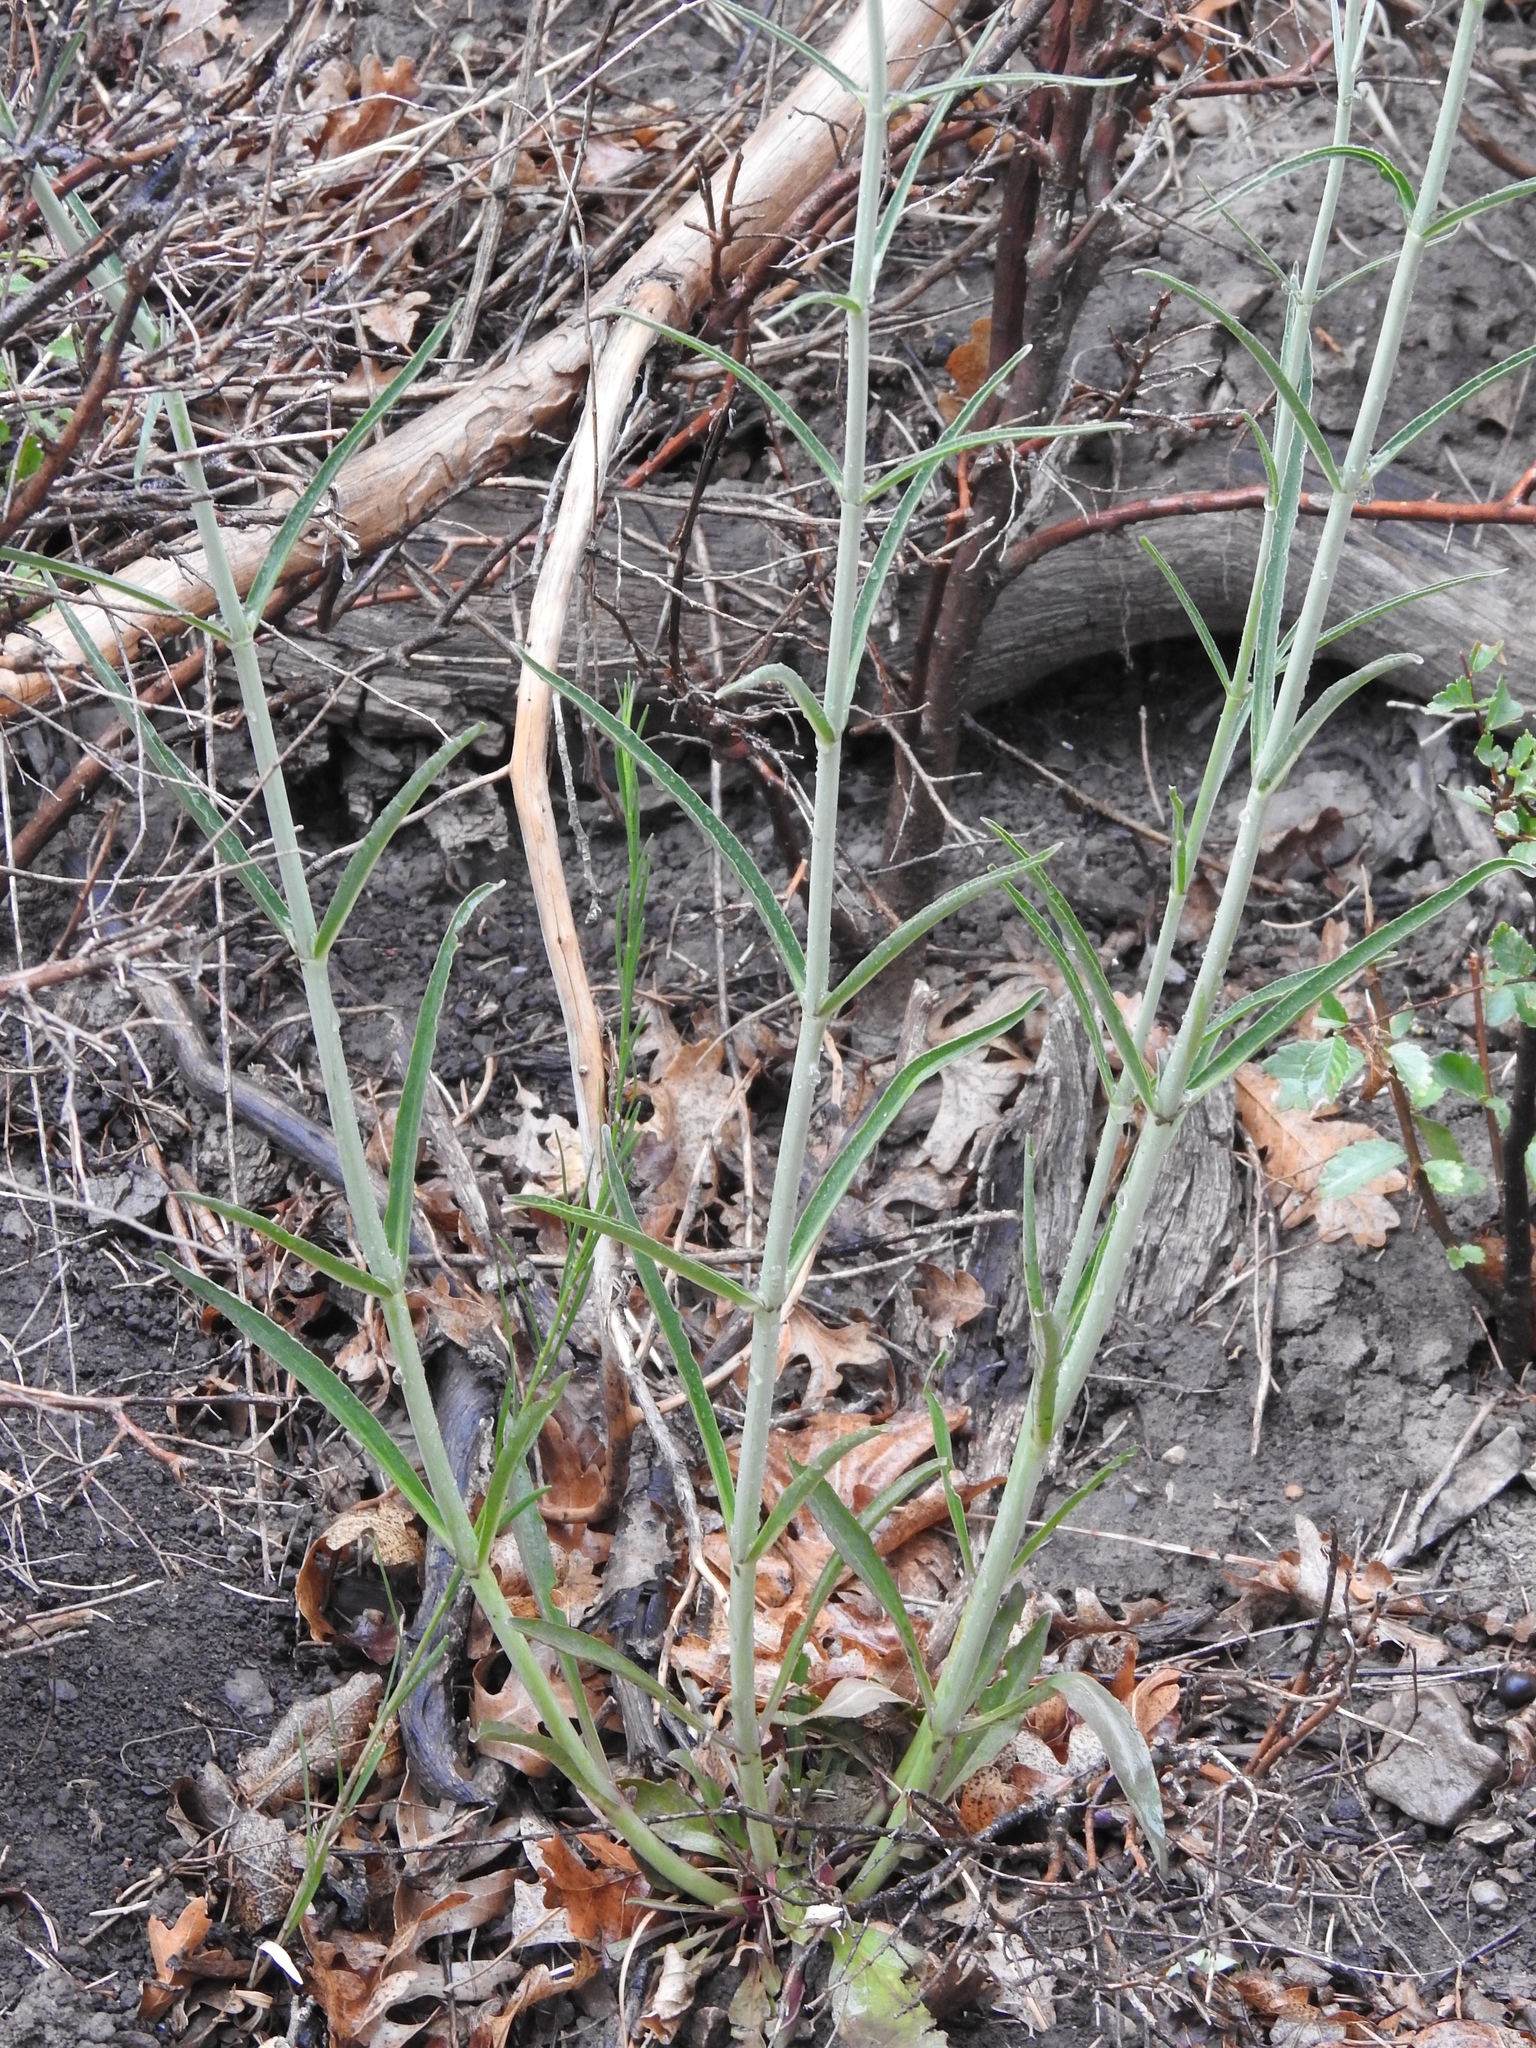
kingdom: Plantae
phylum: Tracheophyta
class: Magnoliopsida
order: Lamiales
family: Plantaginaceae
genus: Penstemon
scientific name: Penstemon barbatus
